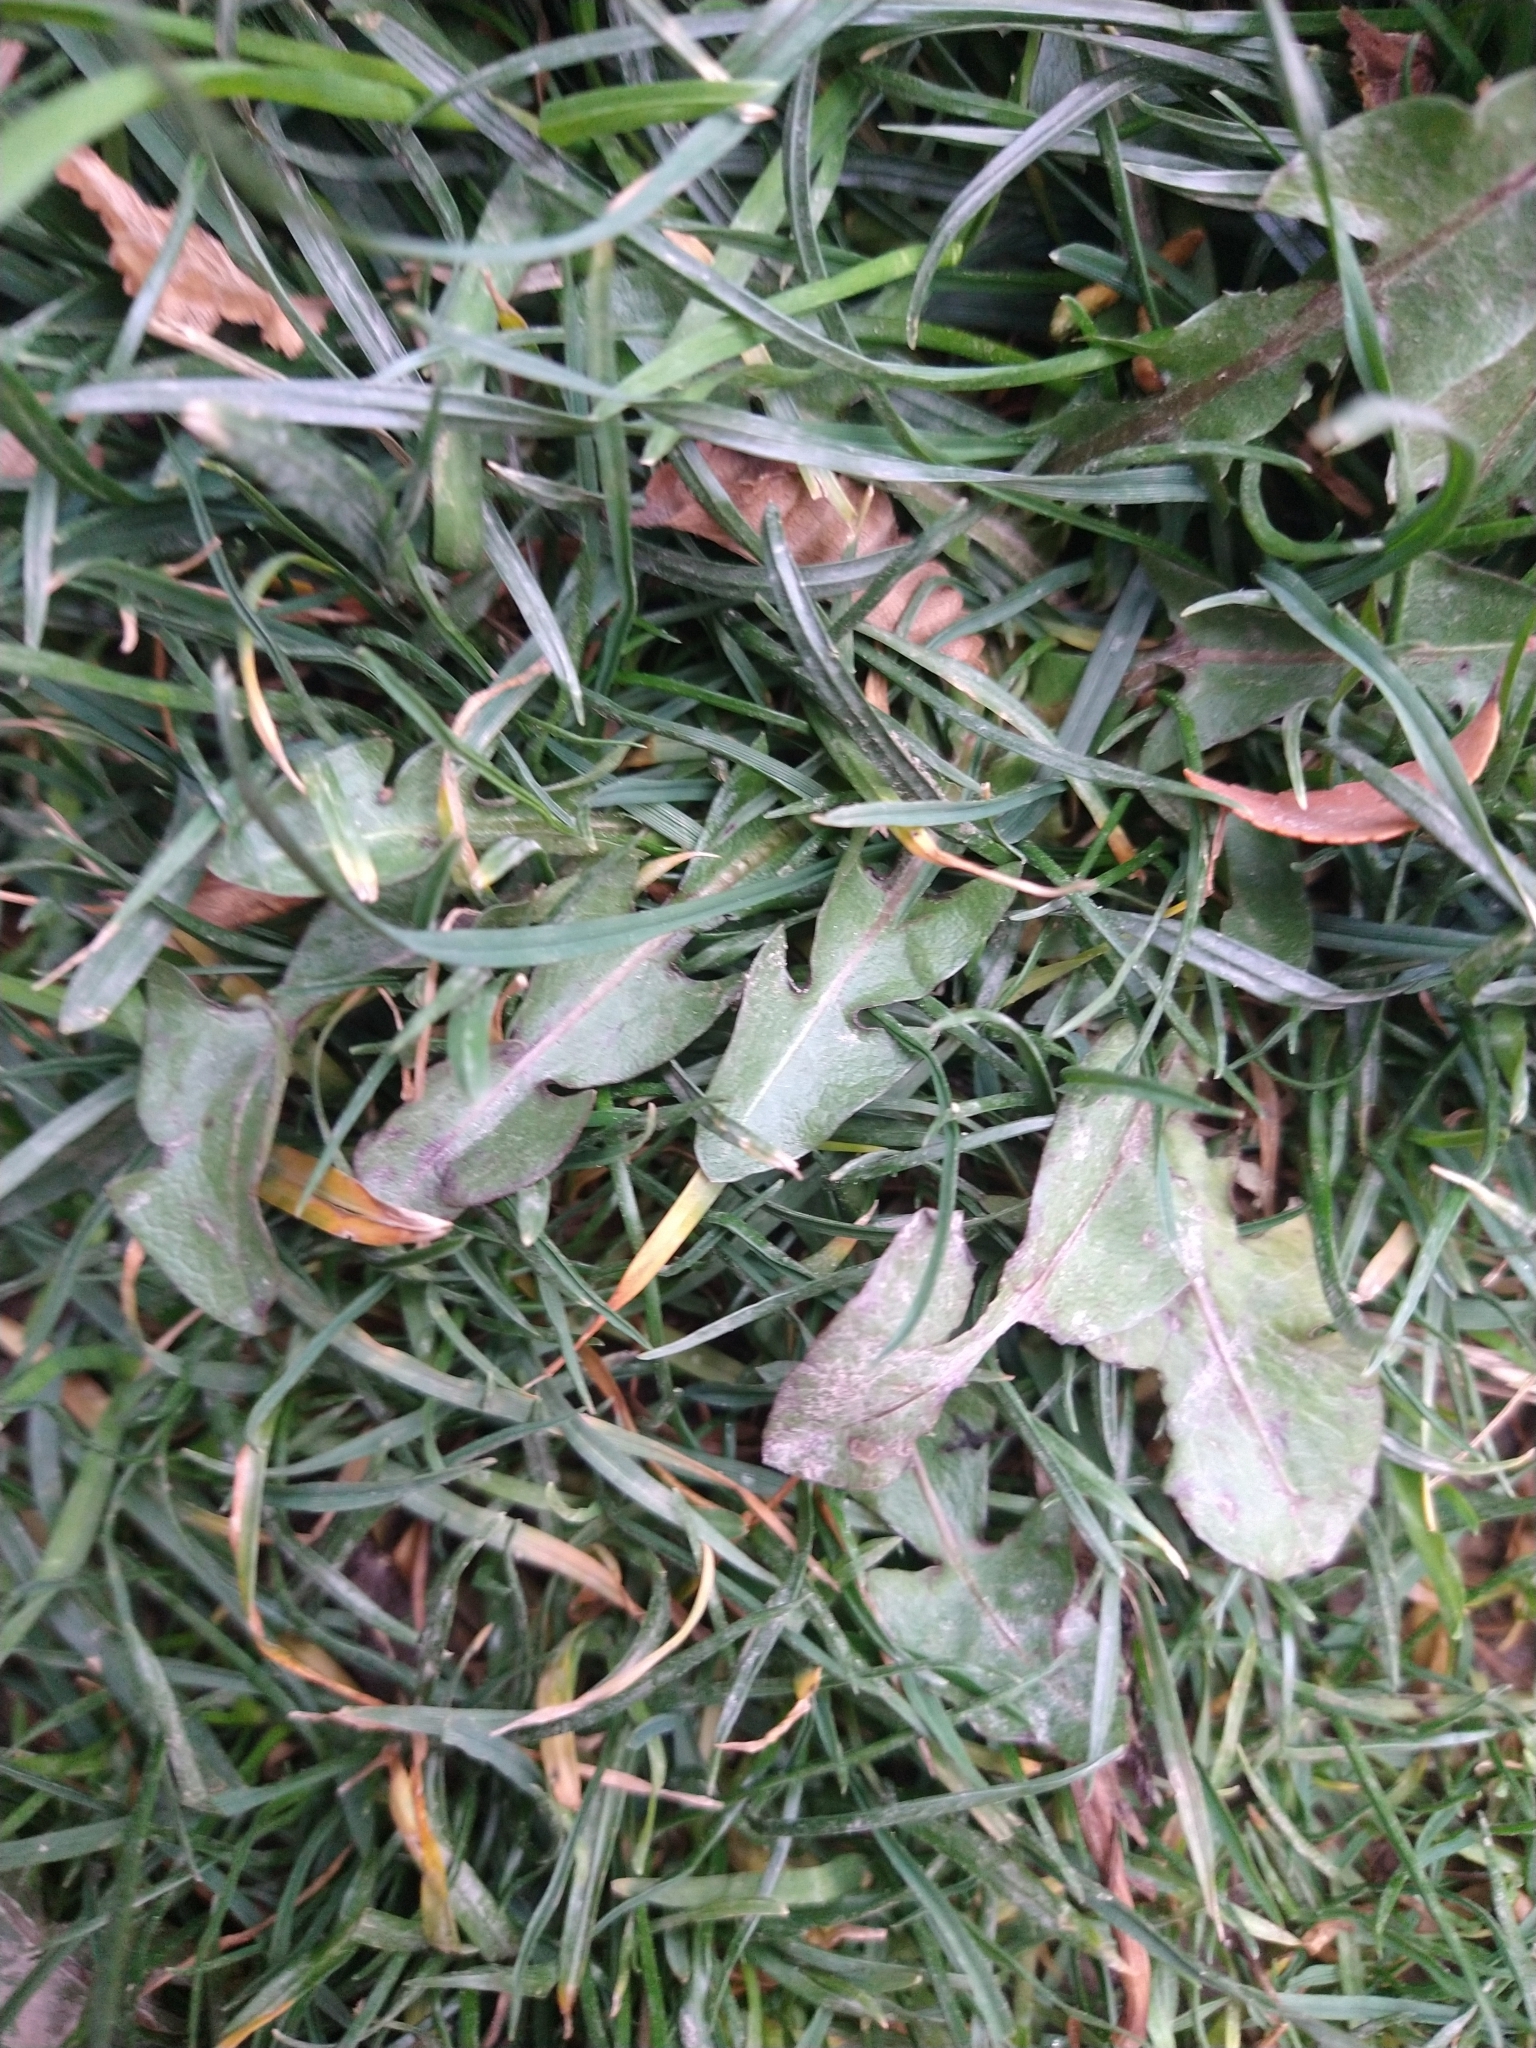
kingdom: Plantae
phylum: Tracheophyta
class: Magnoliopsida
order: Asterales
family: Asteraceae
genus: Taraxacum
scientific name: Taraxacum officinale
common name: Common dandelion
